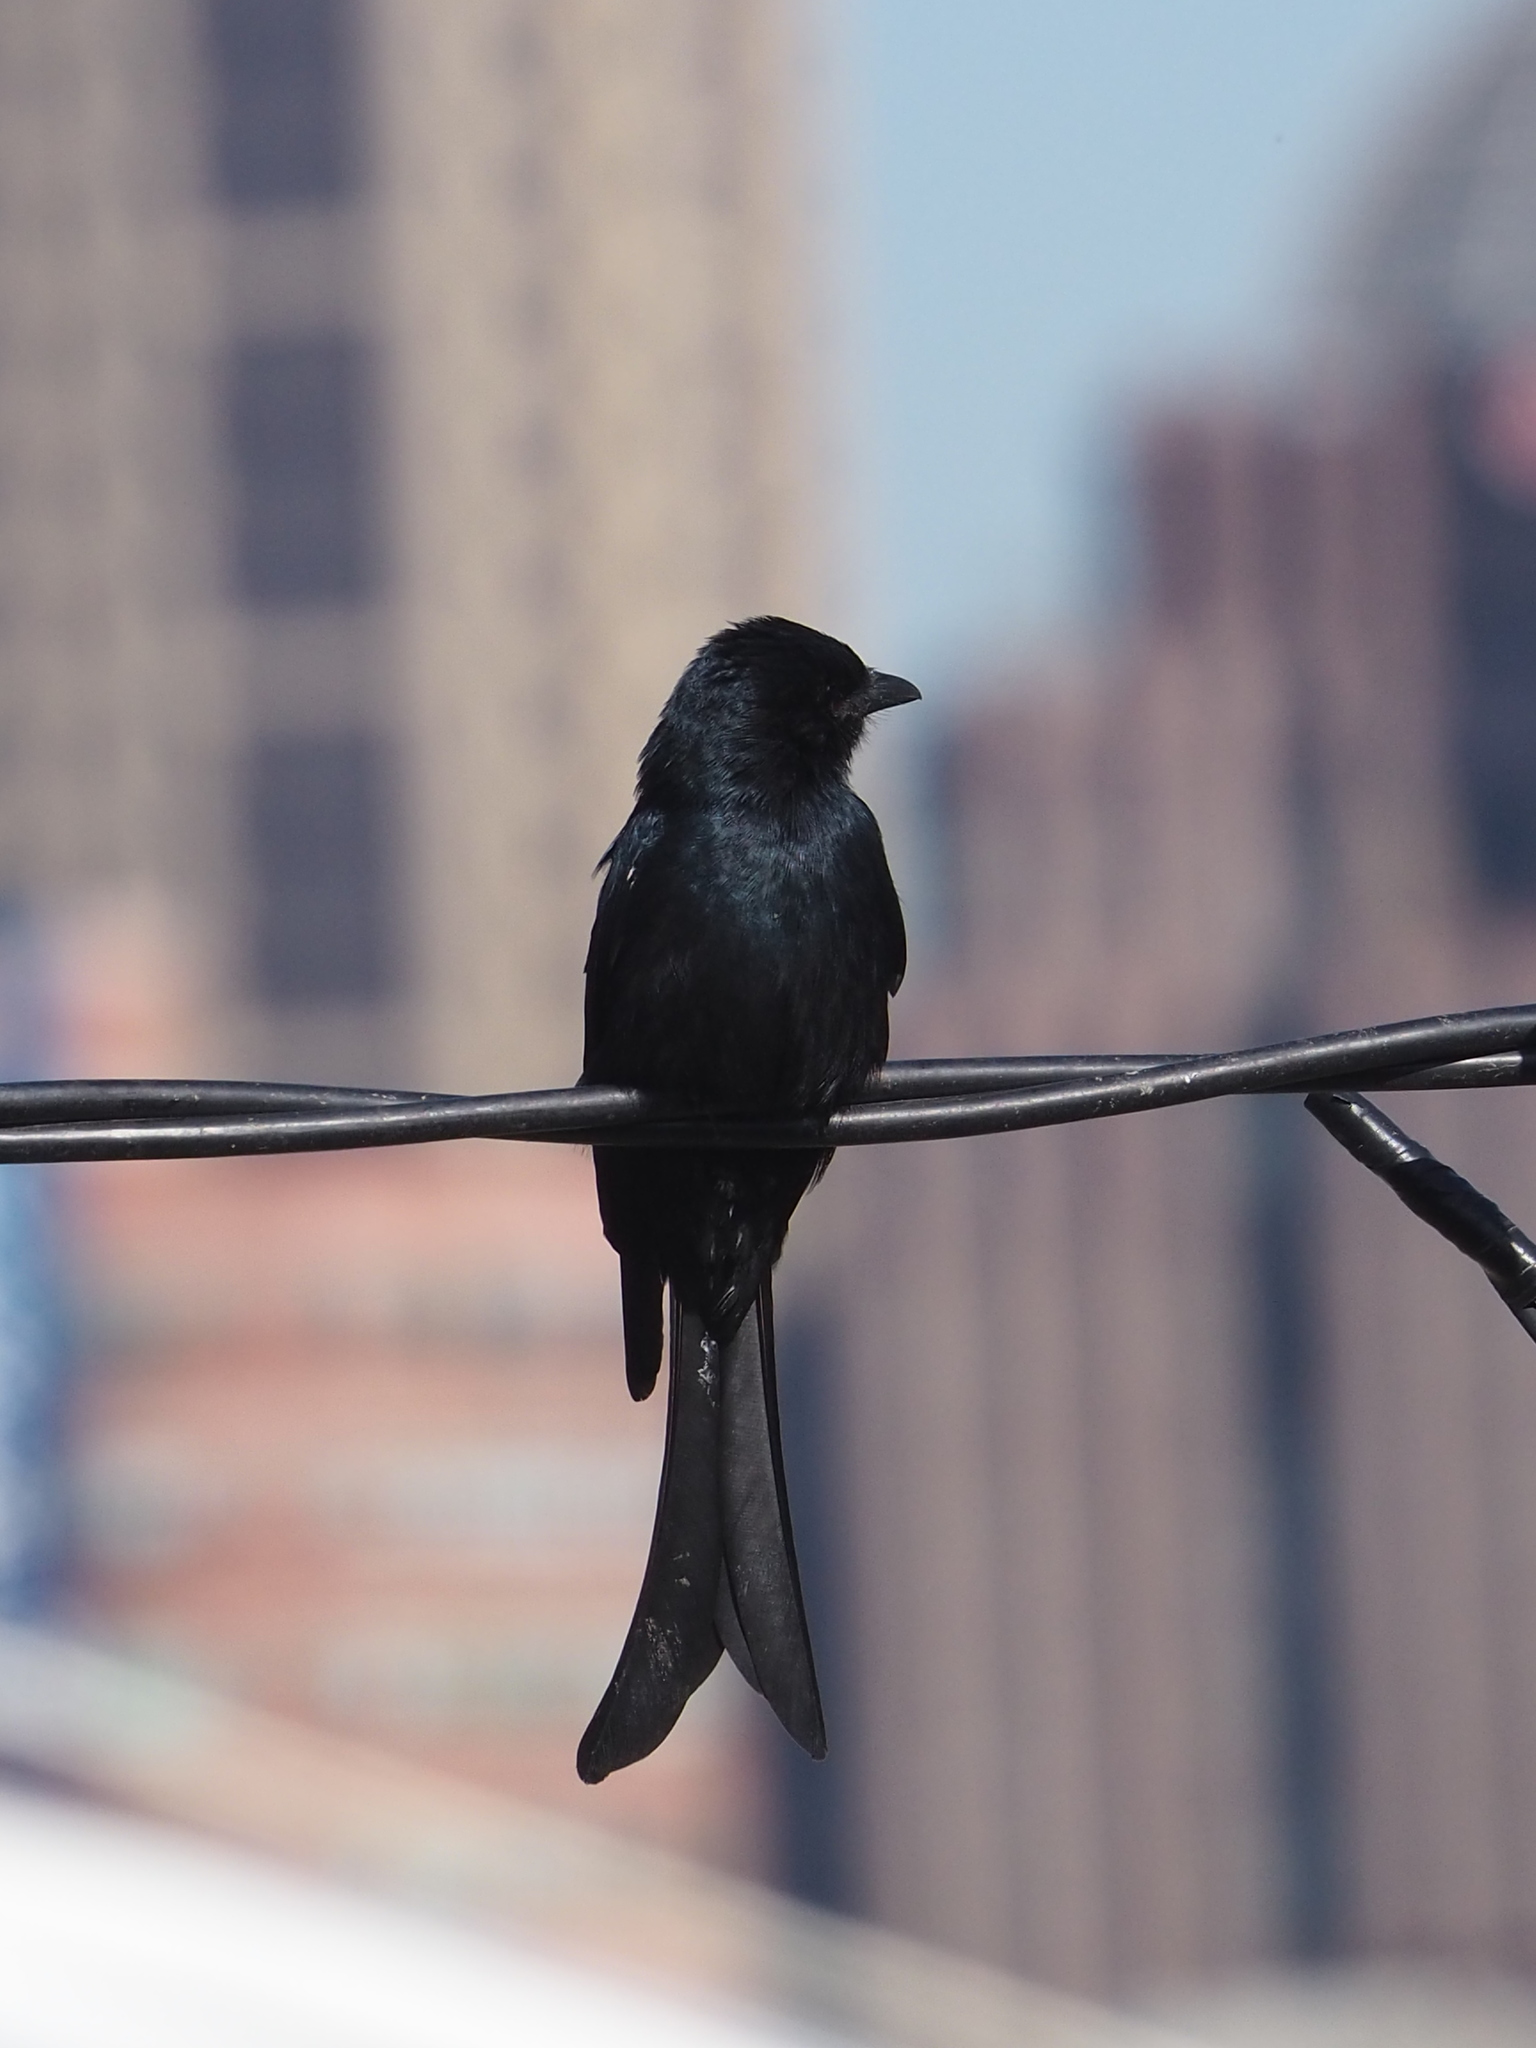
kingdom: Animalia
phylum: Chordata
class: Aves
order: Passeriformes
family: Dicruridae
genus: Dicrurus
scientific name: Dicrurus macrocercus
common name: Black drongo
